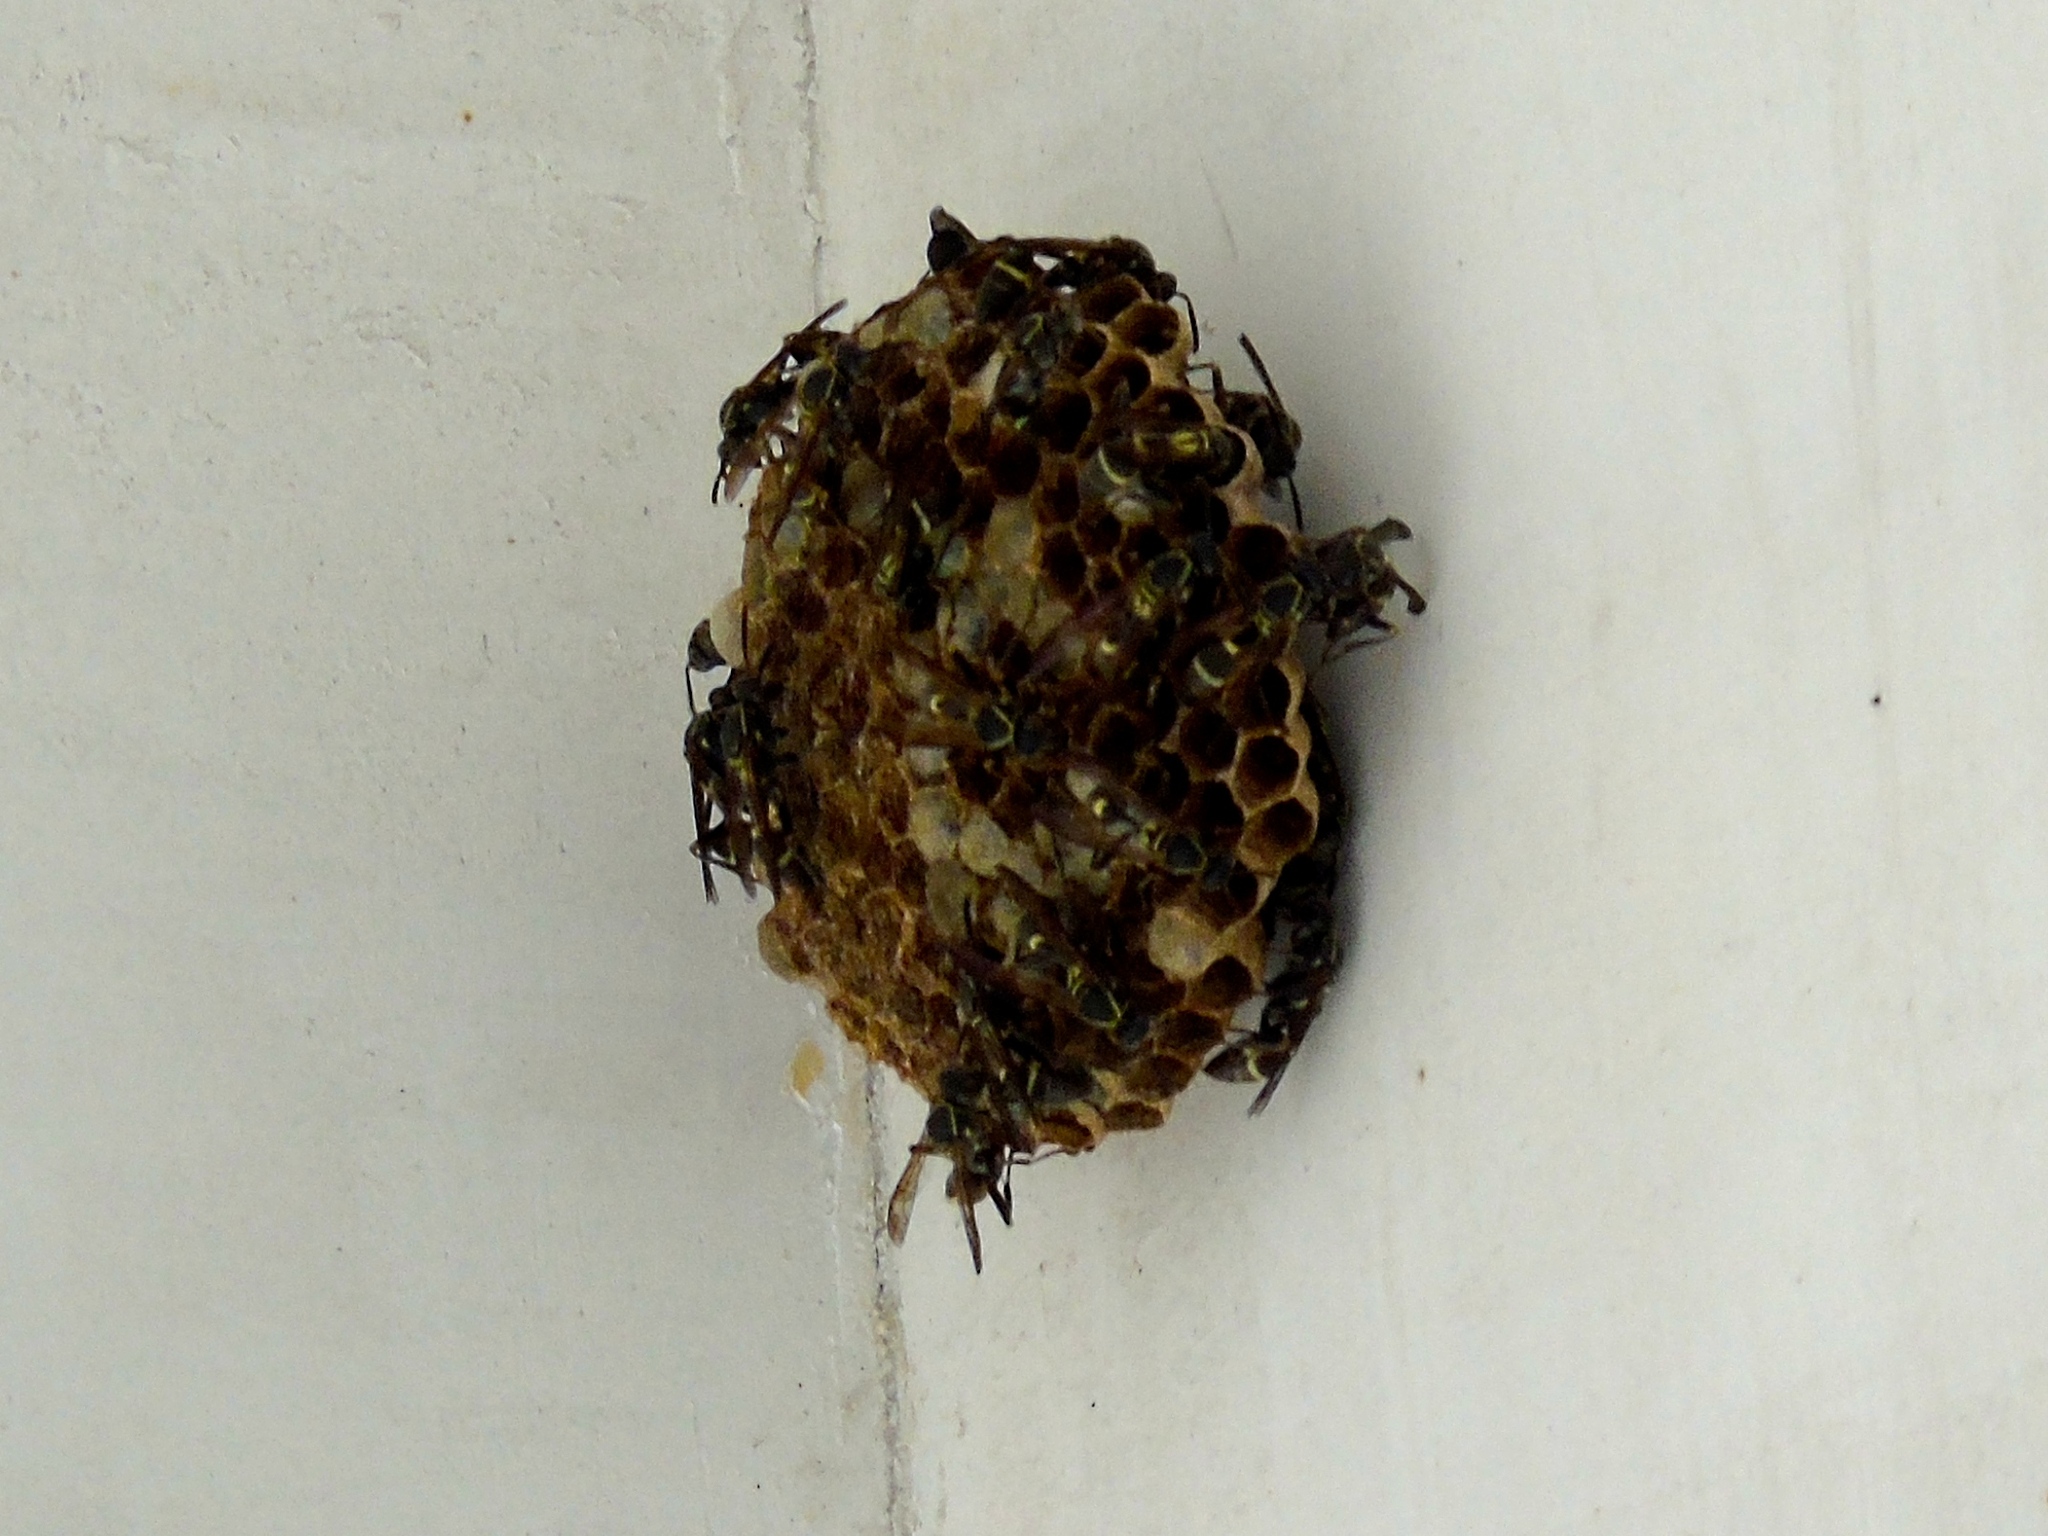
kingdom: Animalia
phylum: Arthropoda
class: Insecta
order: Hymenoptera
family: Vespidae
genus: Mischocyttarus
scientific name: Mischocyttarus
